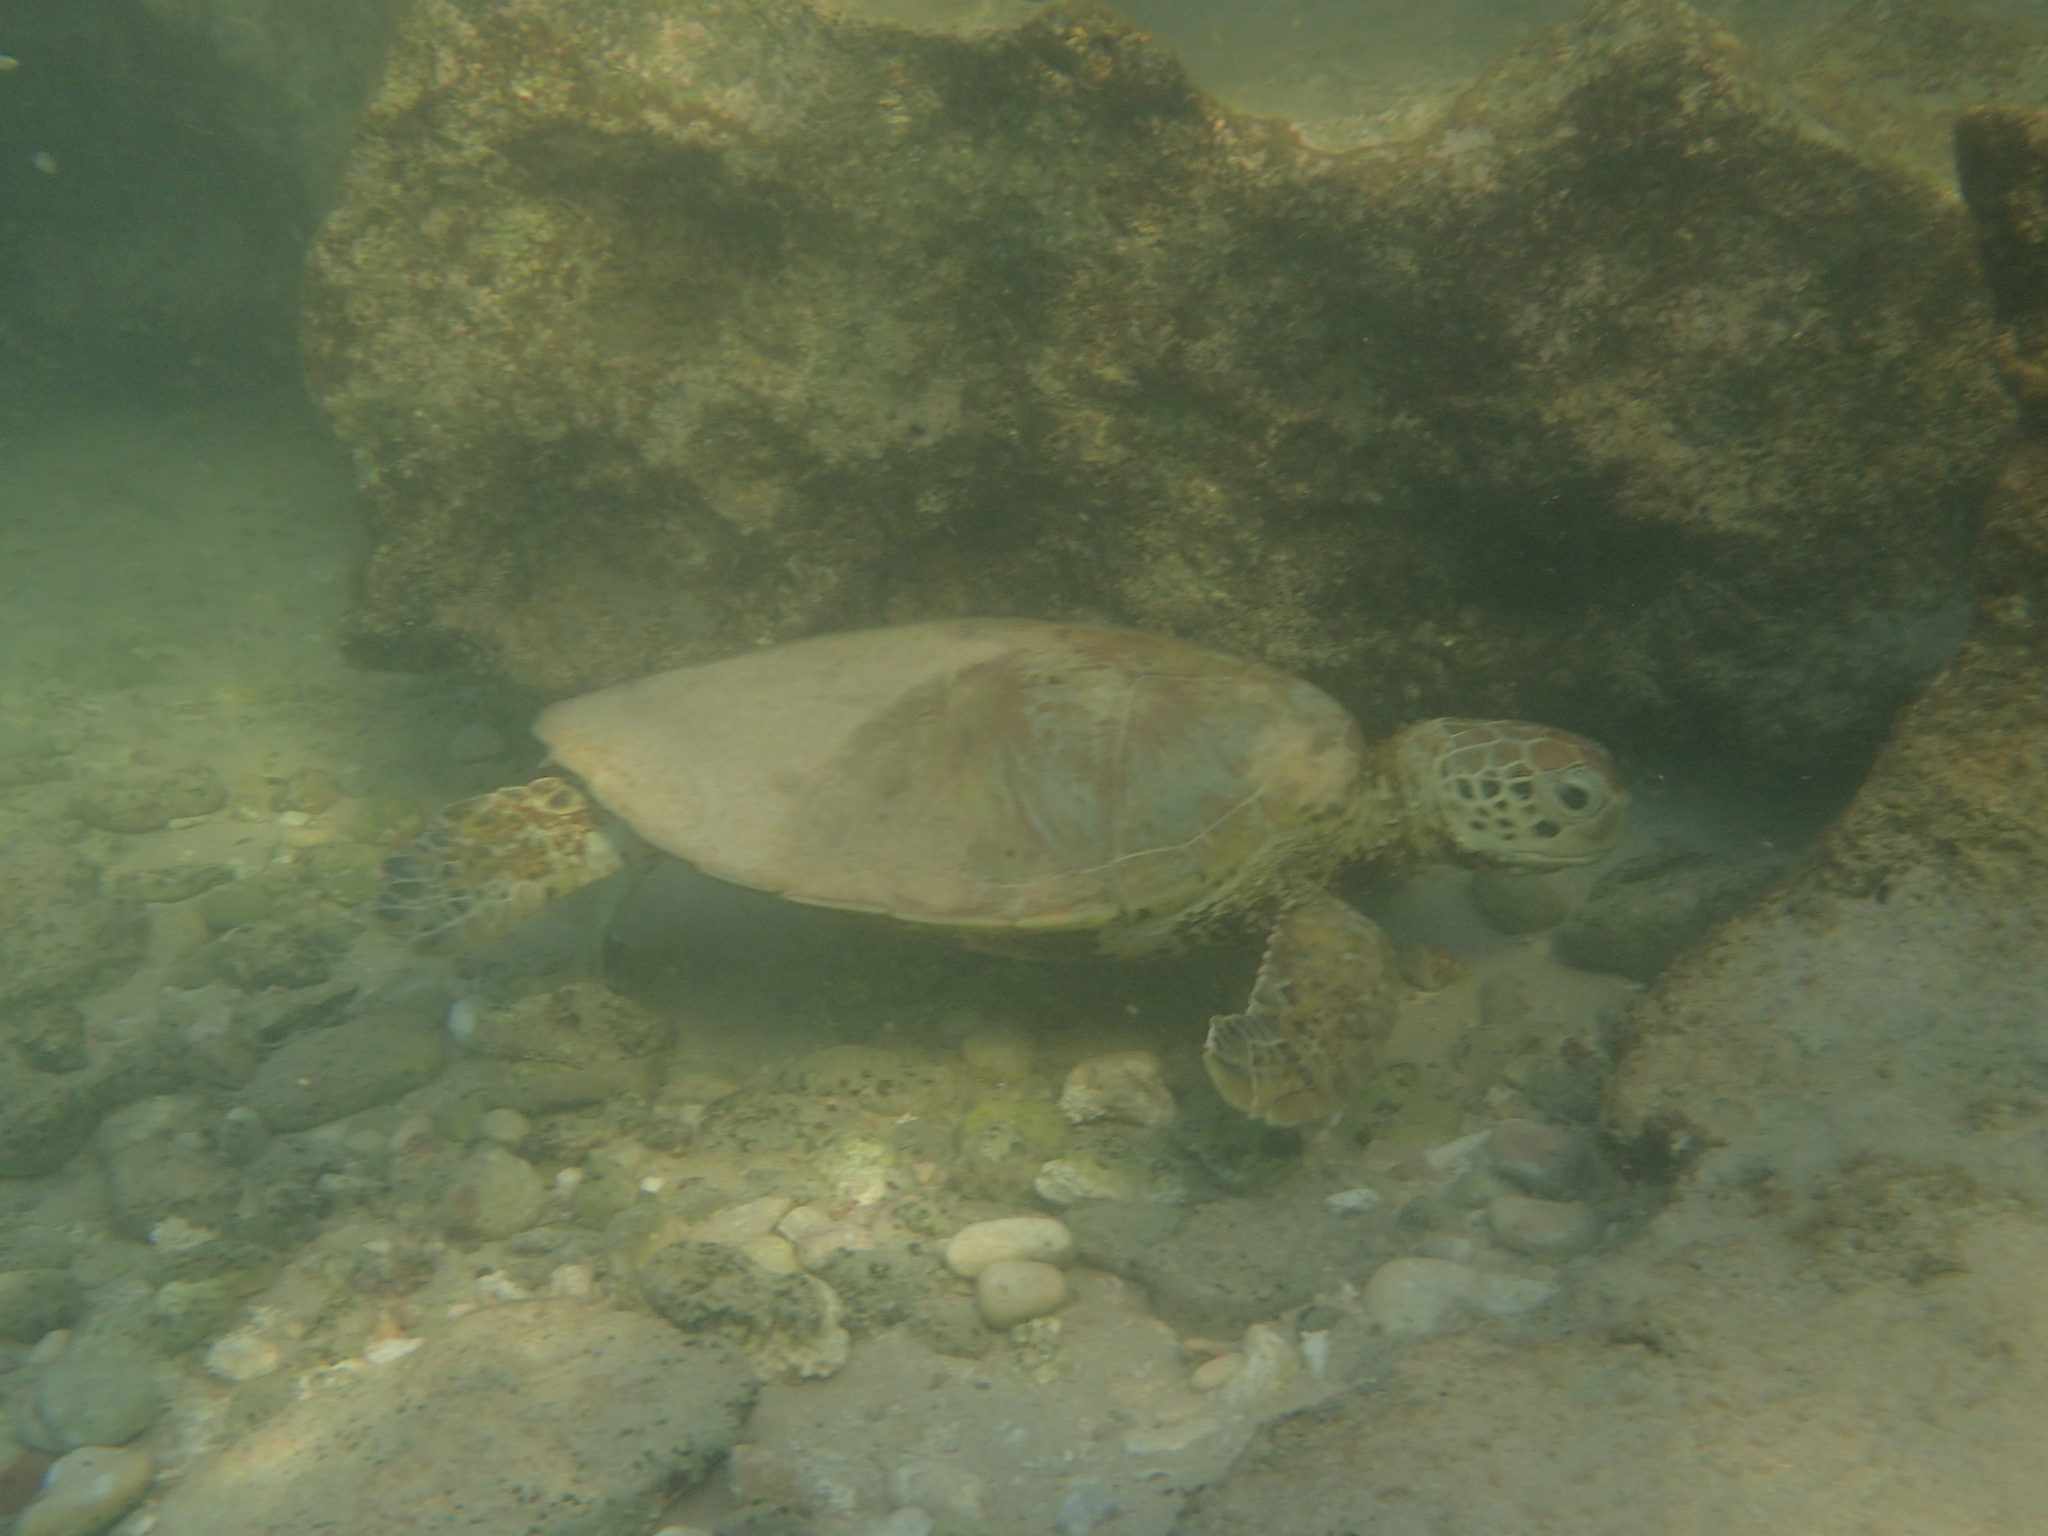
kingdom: Animalia
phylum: Chordata
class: Testudines
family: Cheloniidae
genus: Chelonia
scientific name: Chelonia mydas
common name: Green turtle
